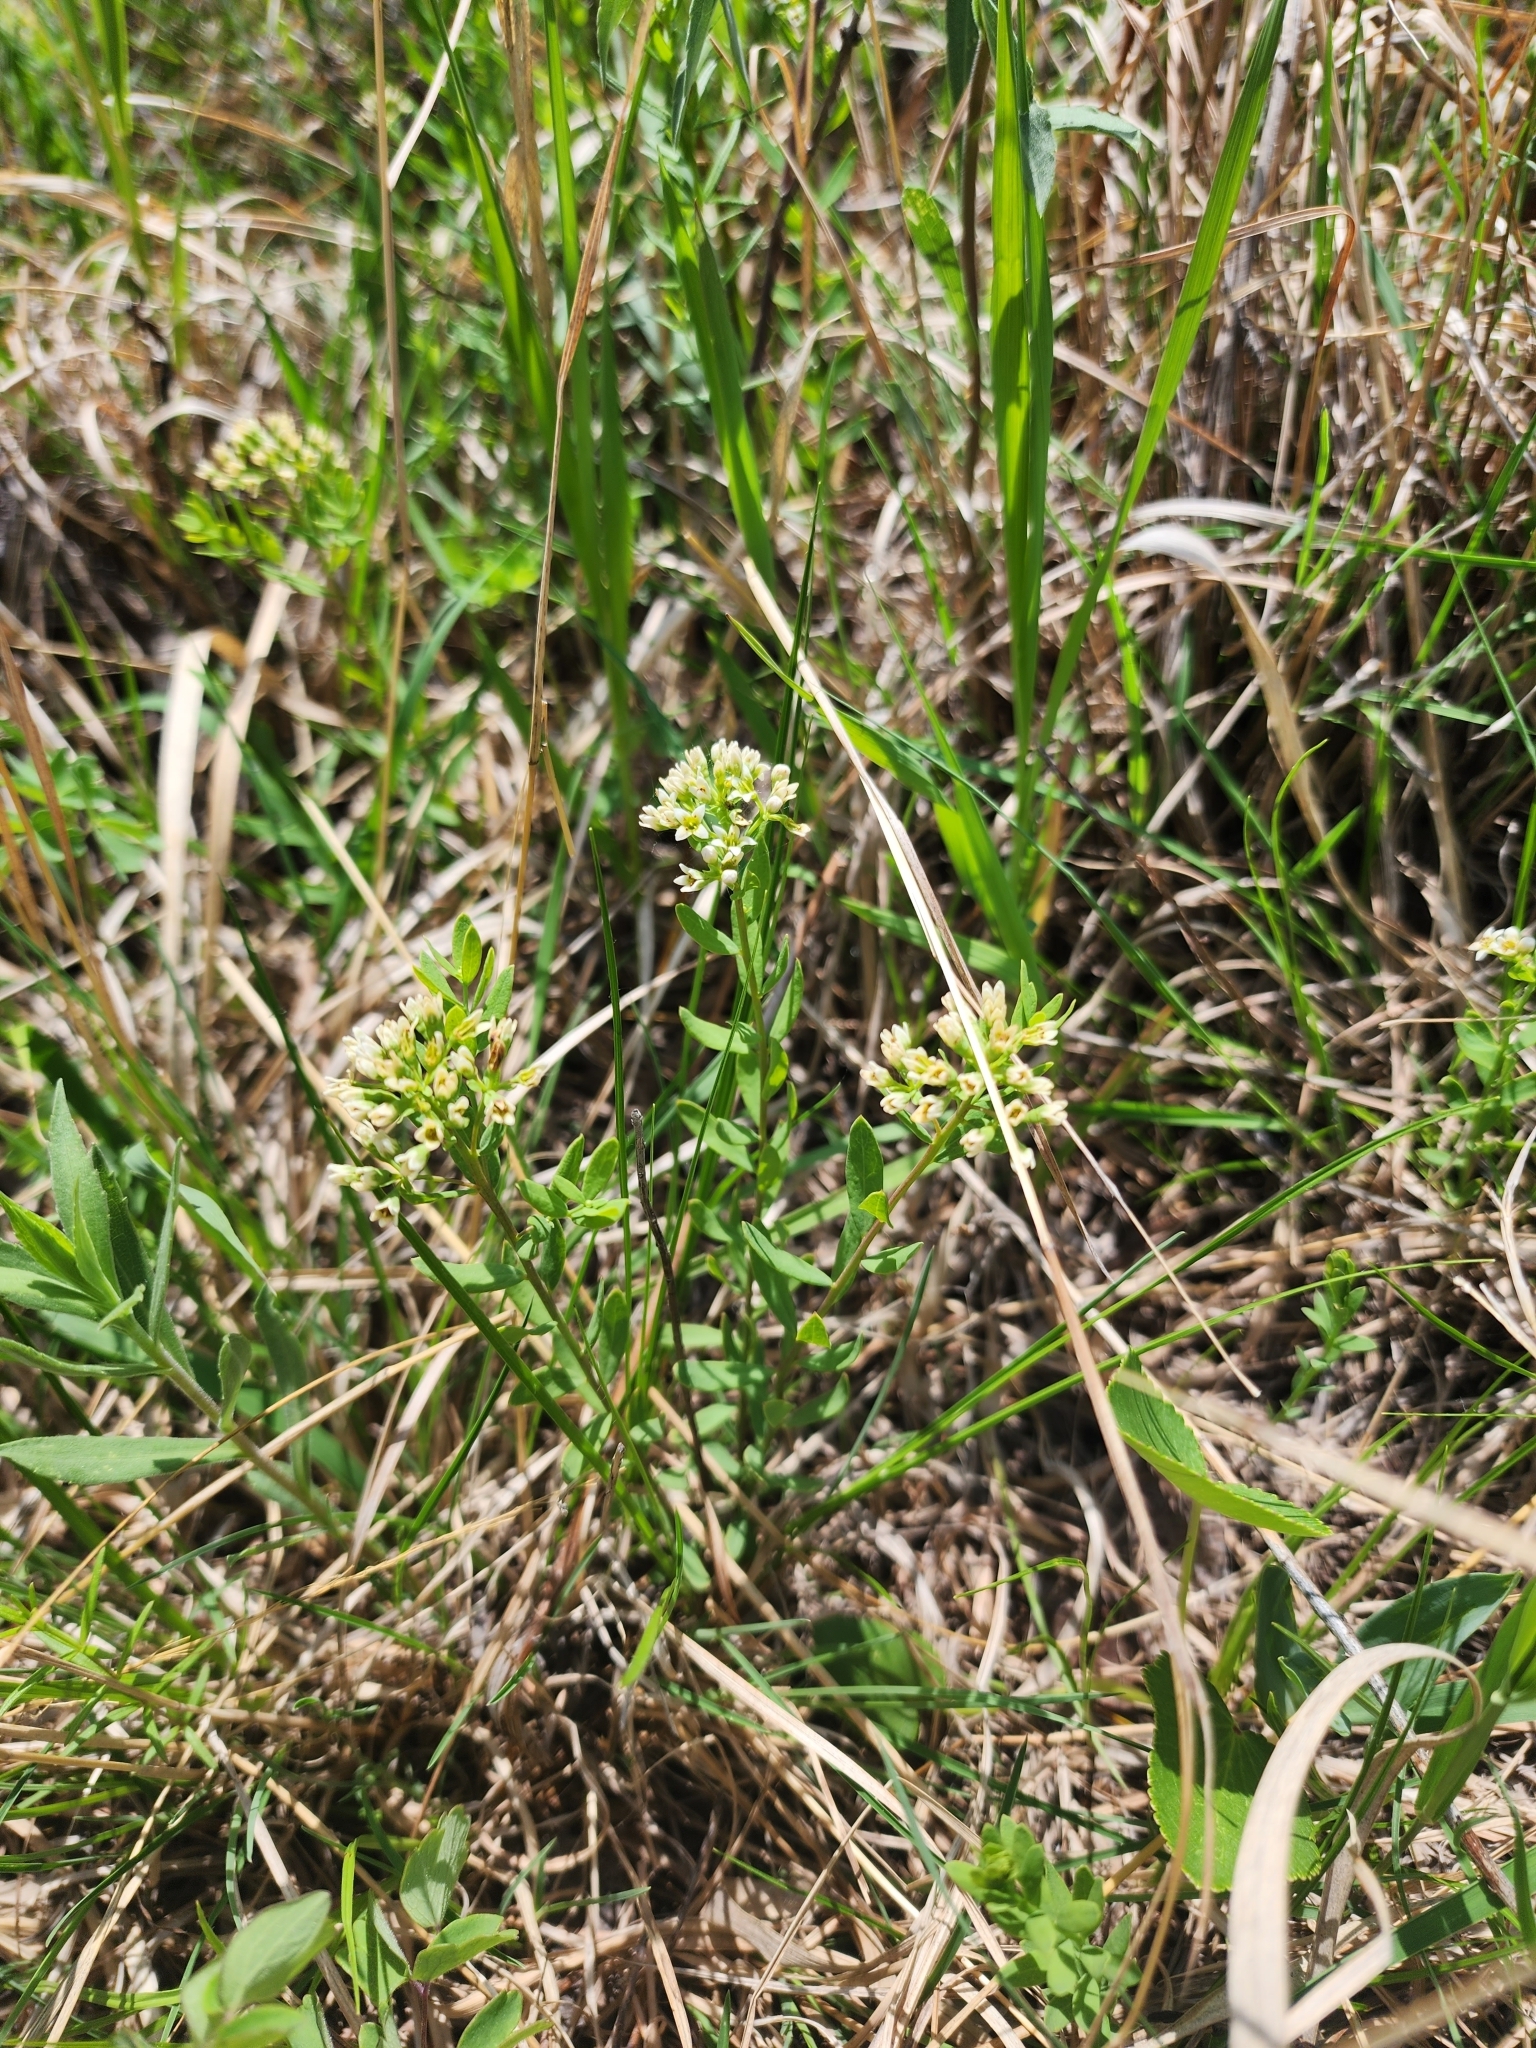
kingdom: Plantae
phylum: Tracheophyta
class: Magnoliopsida
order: Santalales
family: Comandraceae
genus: Comandra
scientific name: Comandra umbellata
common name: Bastard toadflax
